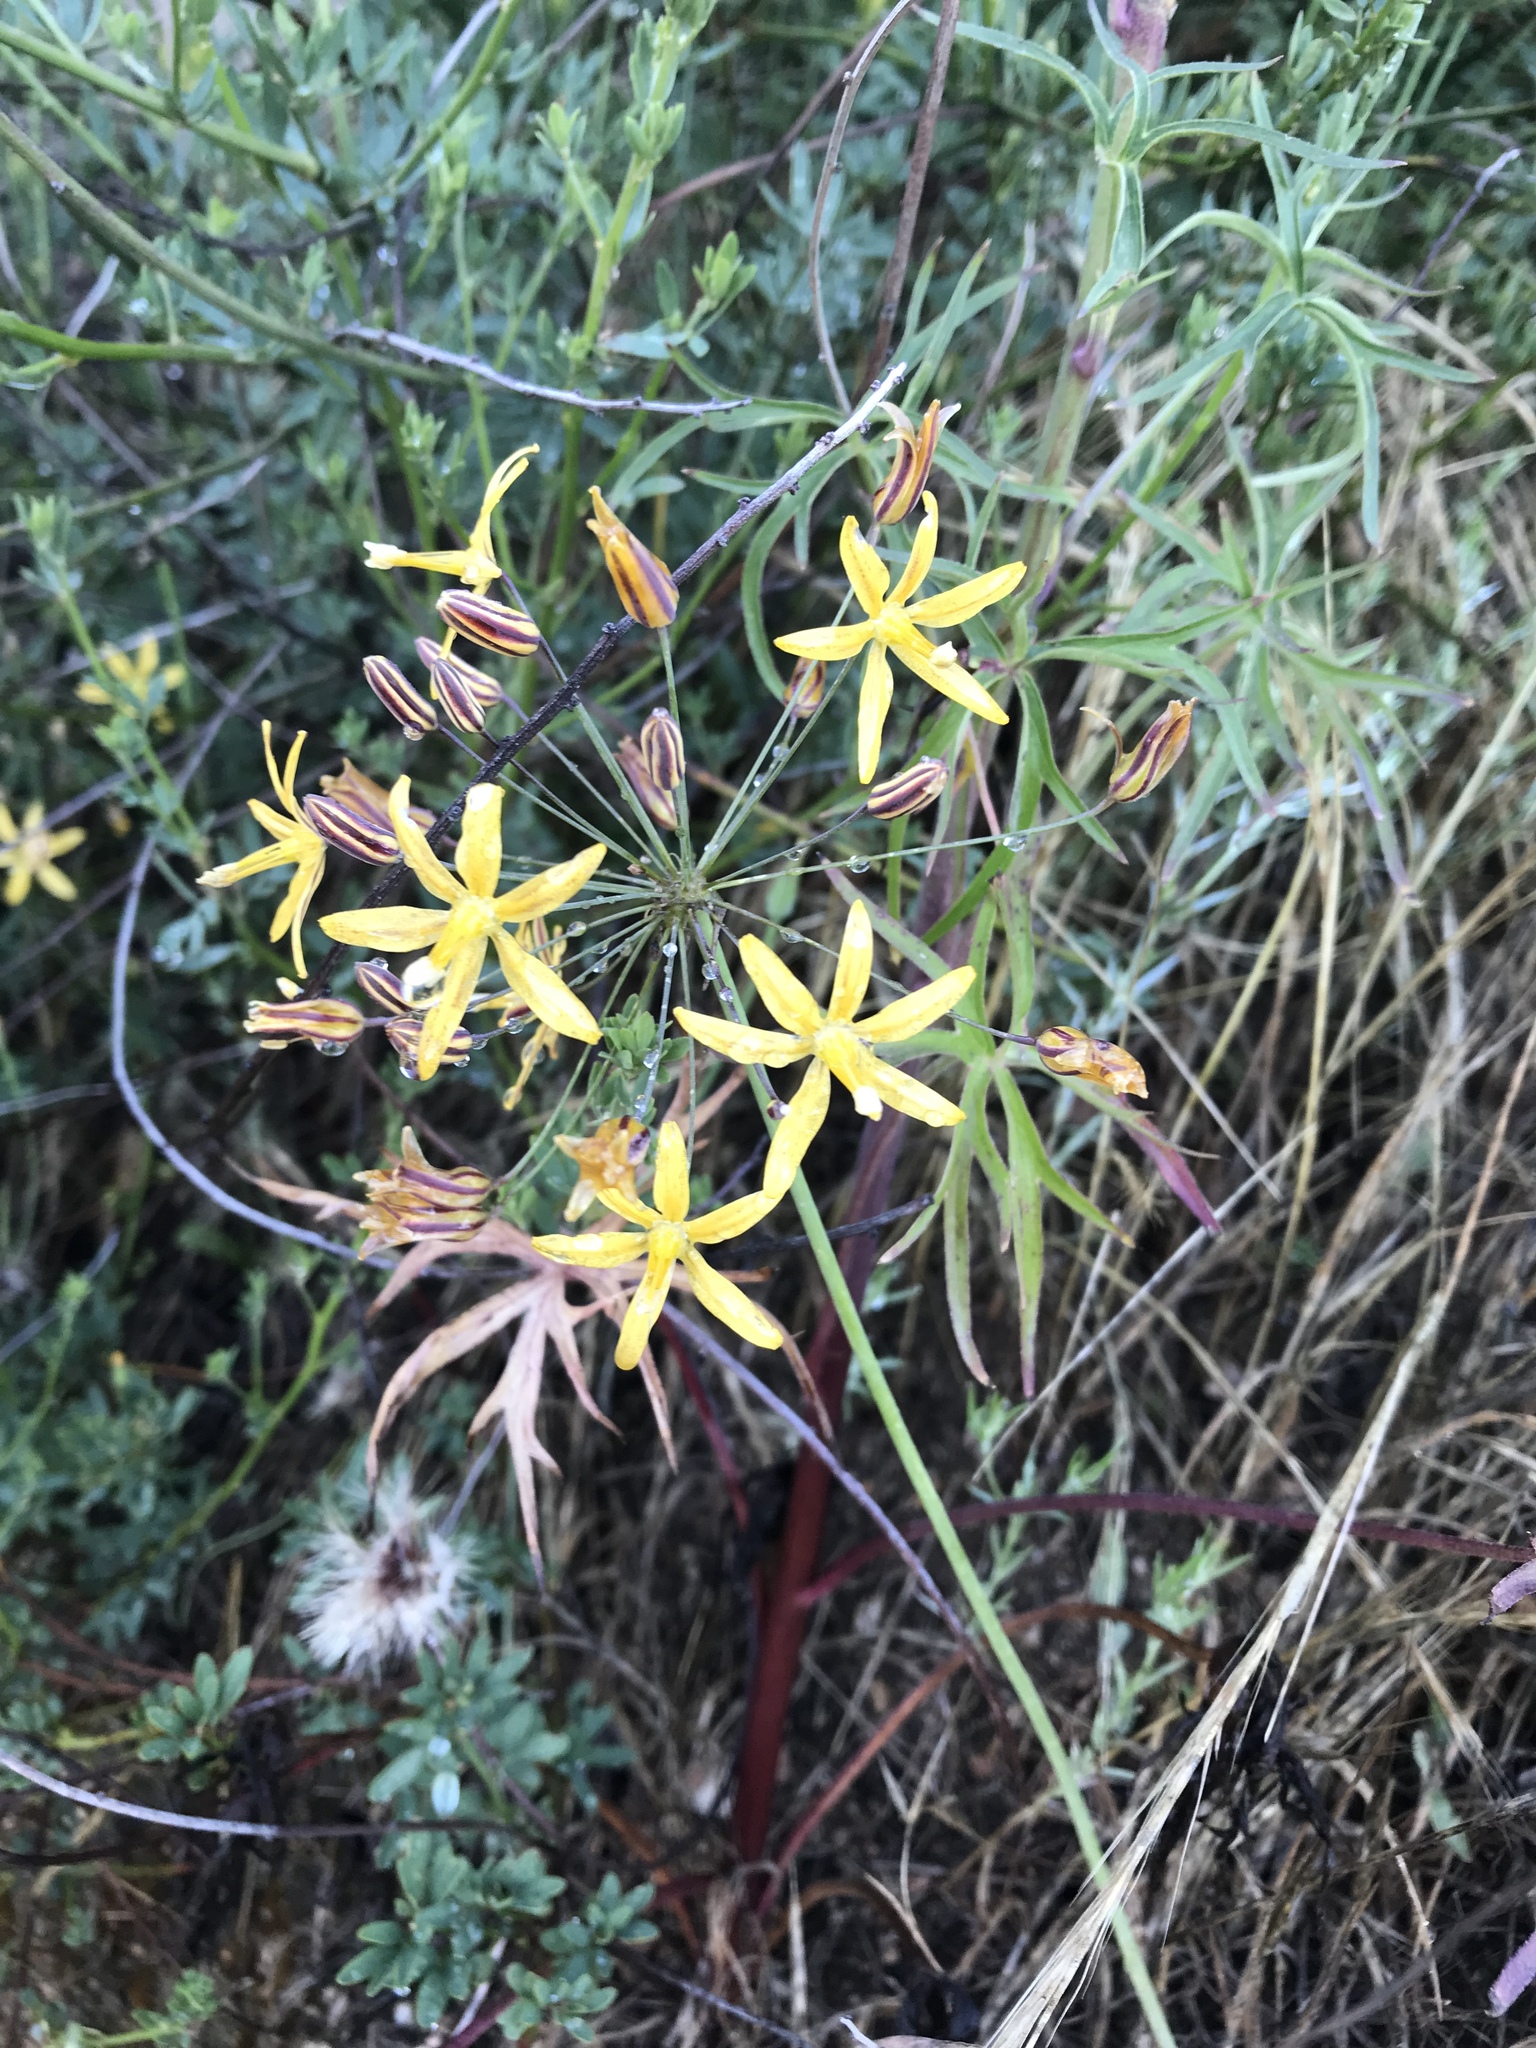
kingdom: Plantae
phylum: Tracheophyta
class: Liliopsida
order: Asparagales
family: Asparagaceae
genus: Bloomeria
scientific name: Bloomeria crocea
